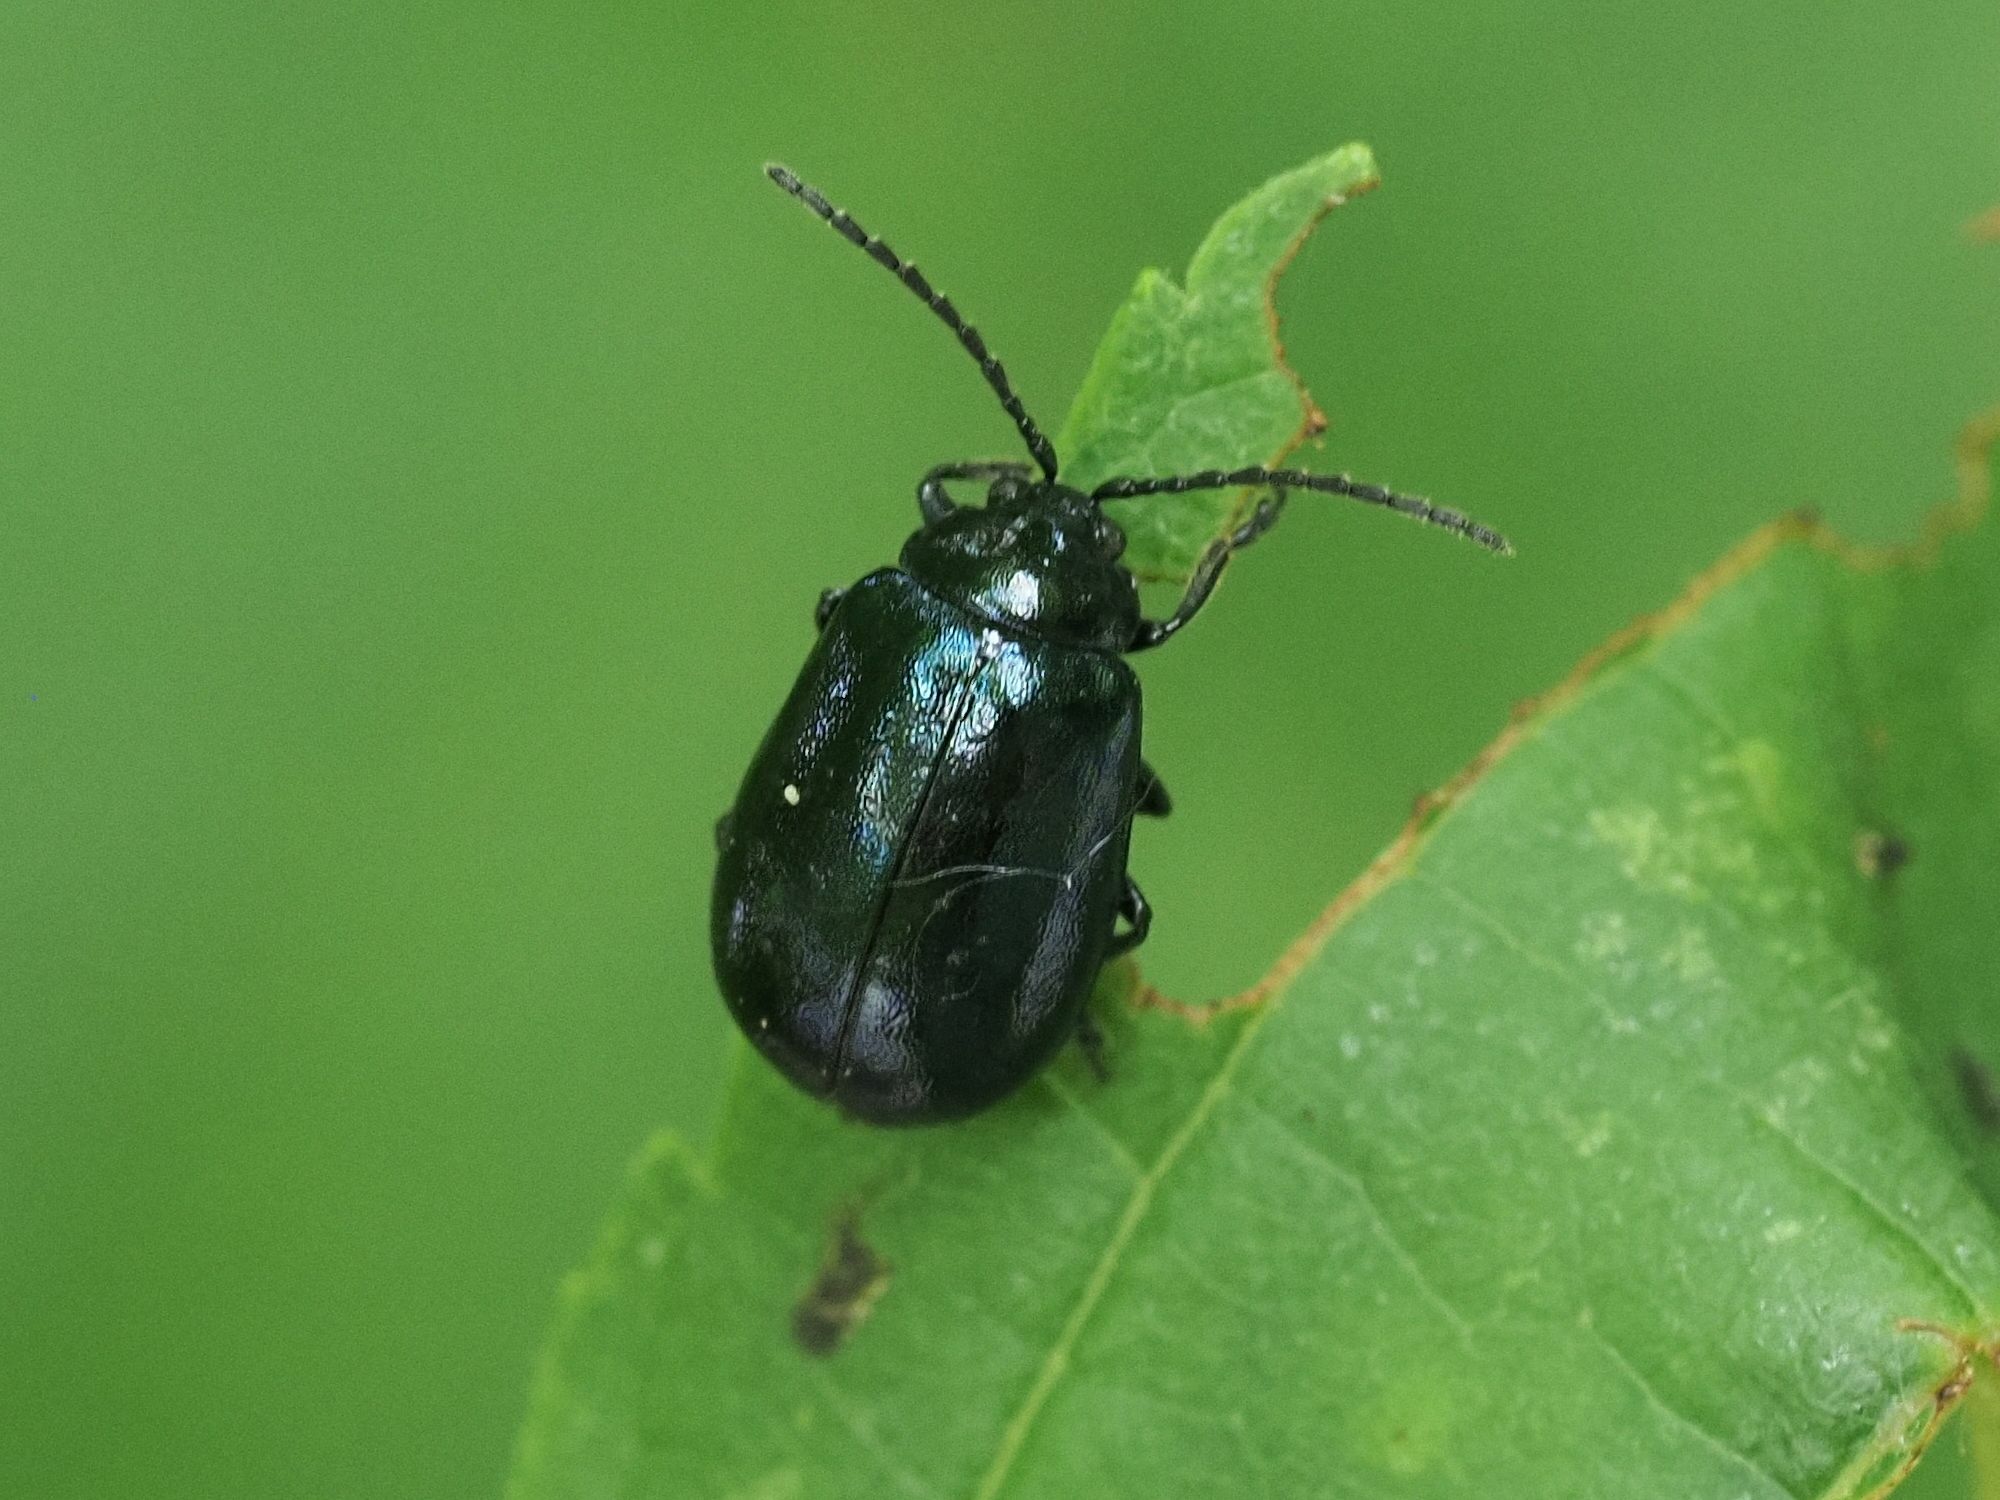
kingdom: Animalia
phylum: Arthropoda
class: Insecta
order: Coleoptera
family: Chrysomelidae
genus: Agelastica
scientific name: Agelastica alni
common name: Alder leaf beetle
